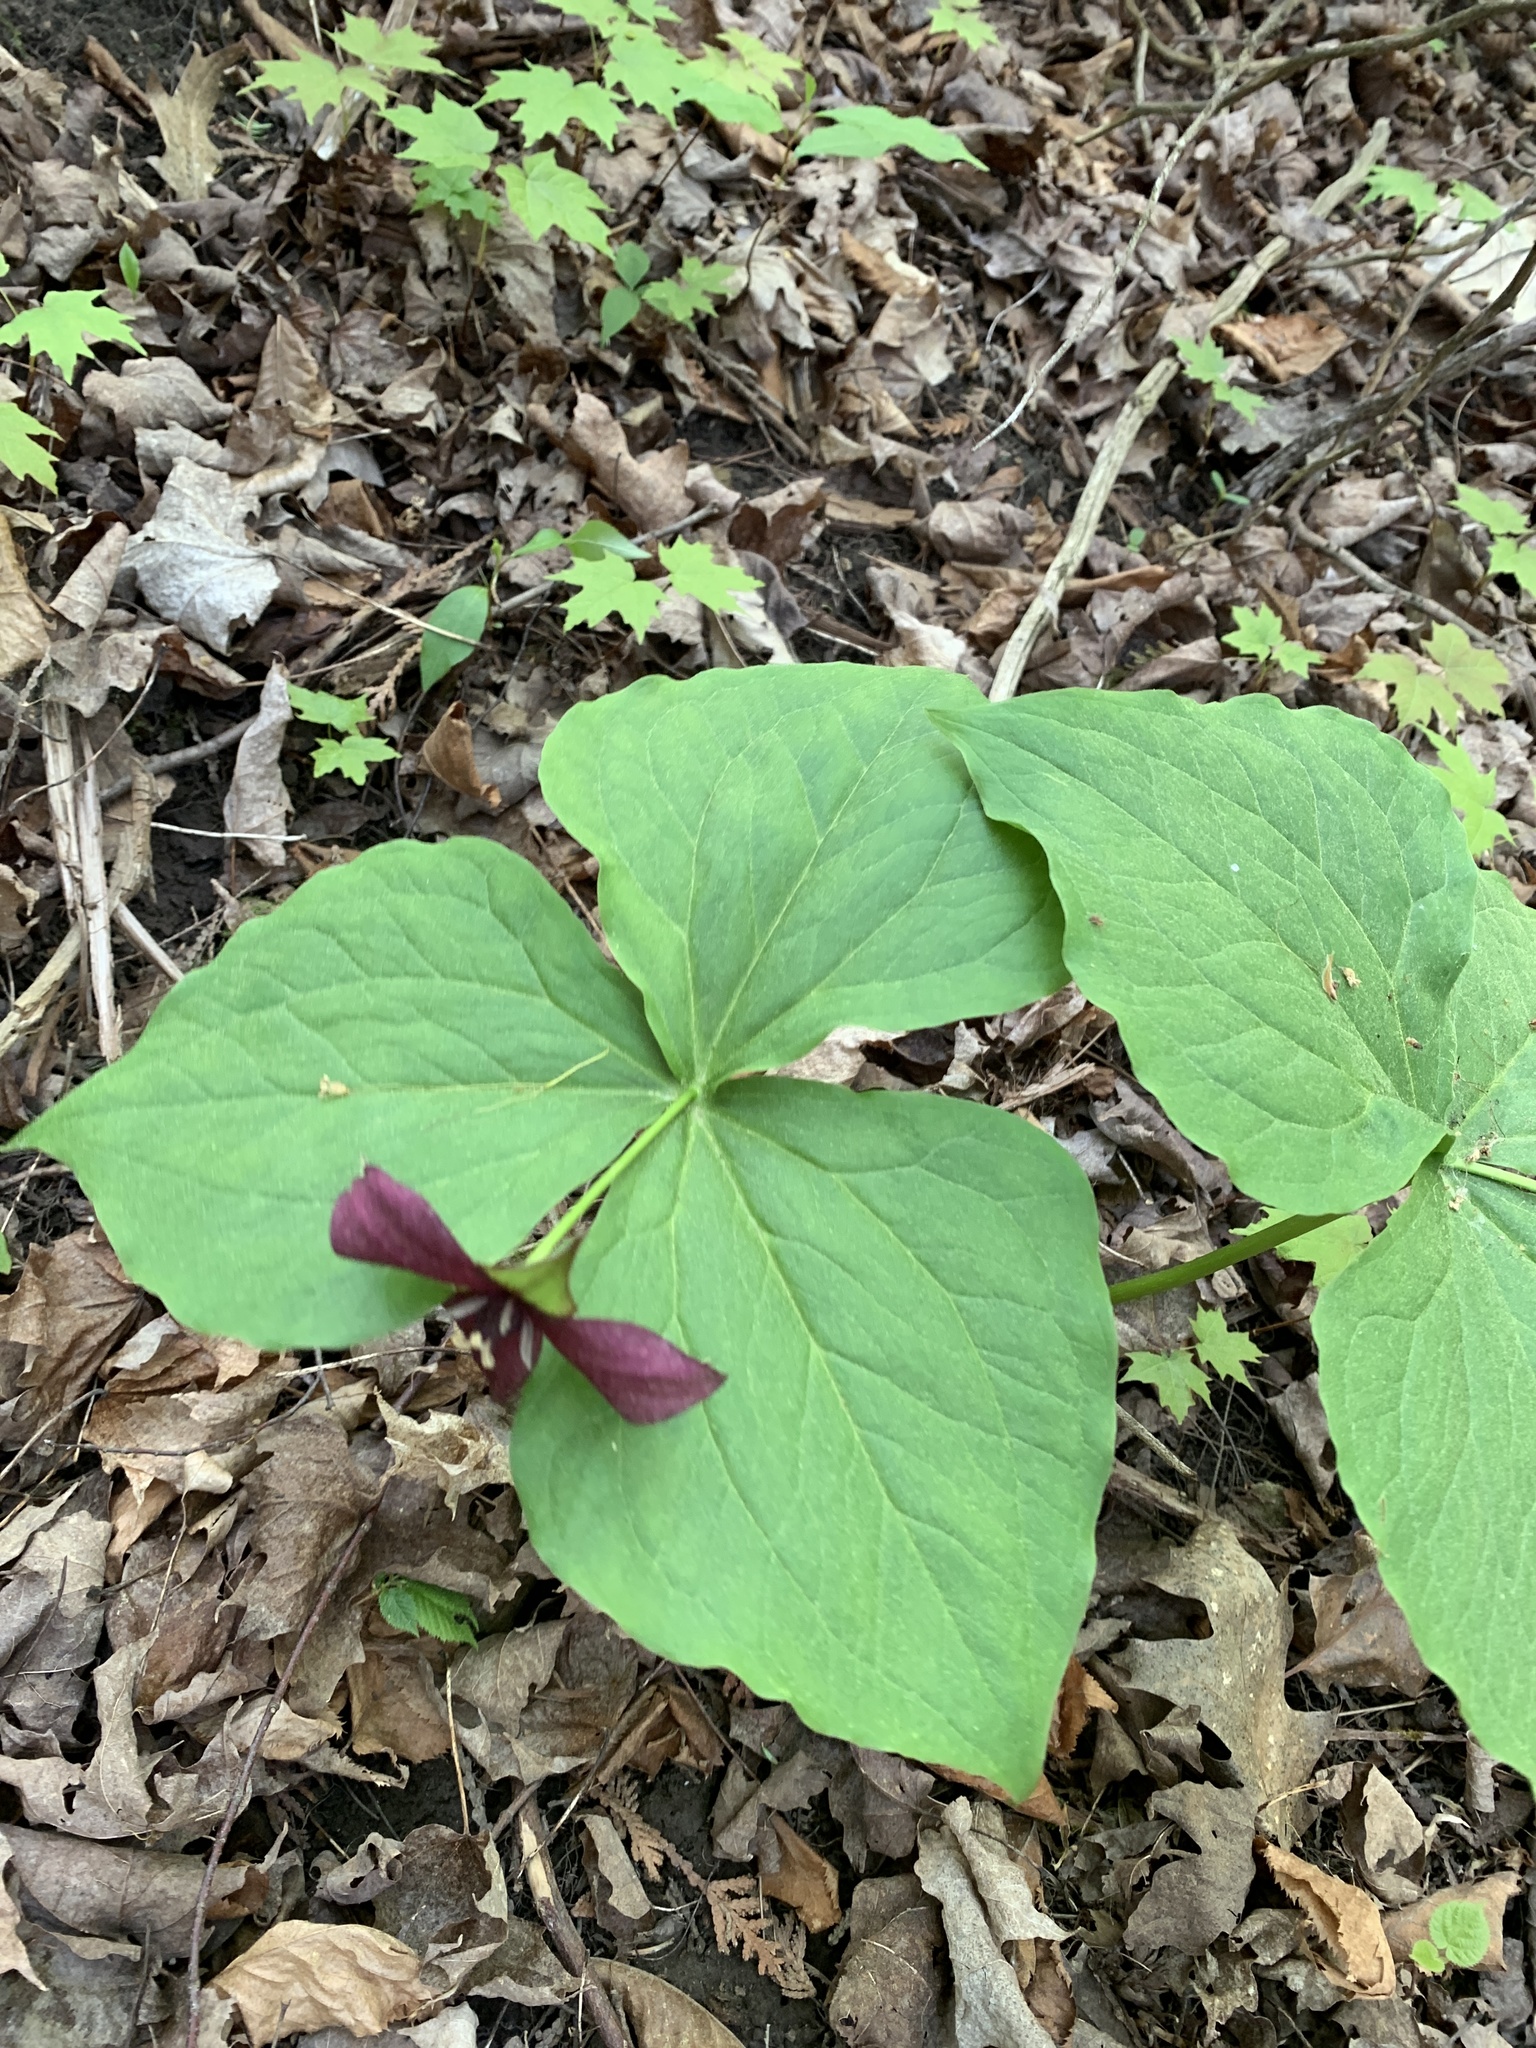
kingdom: Plantae
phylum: Tracheophyta
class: Liliopsida
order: Liliales
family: Melanthiaceae
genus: Trillium
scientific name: Trillium erectum
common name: Purple trillium
